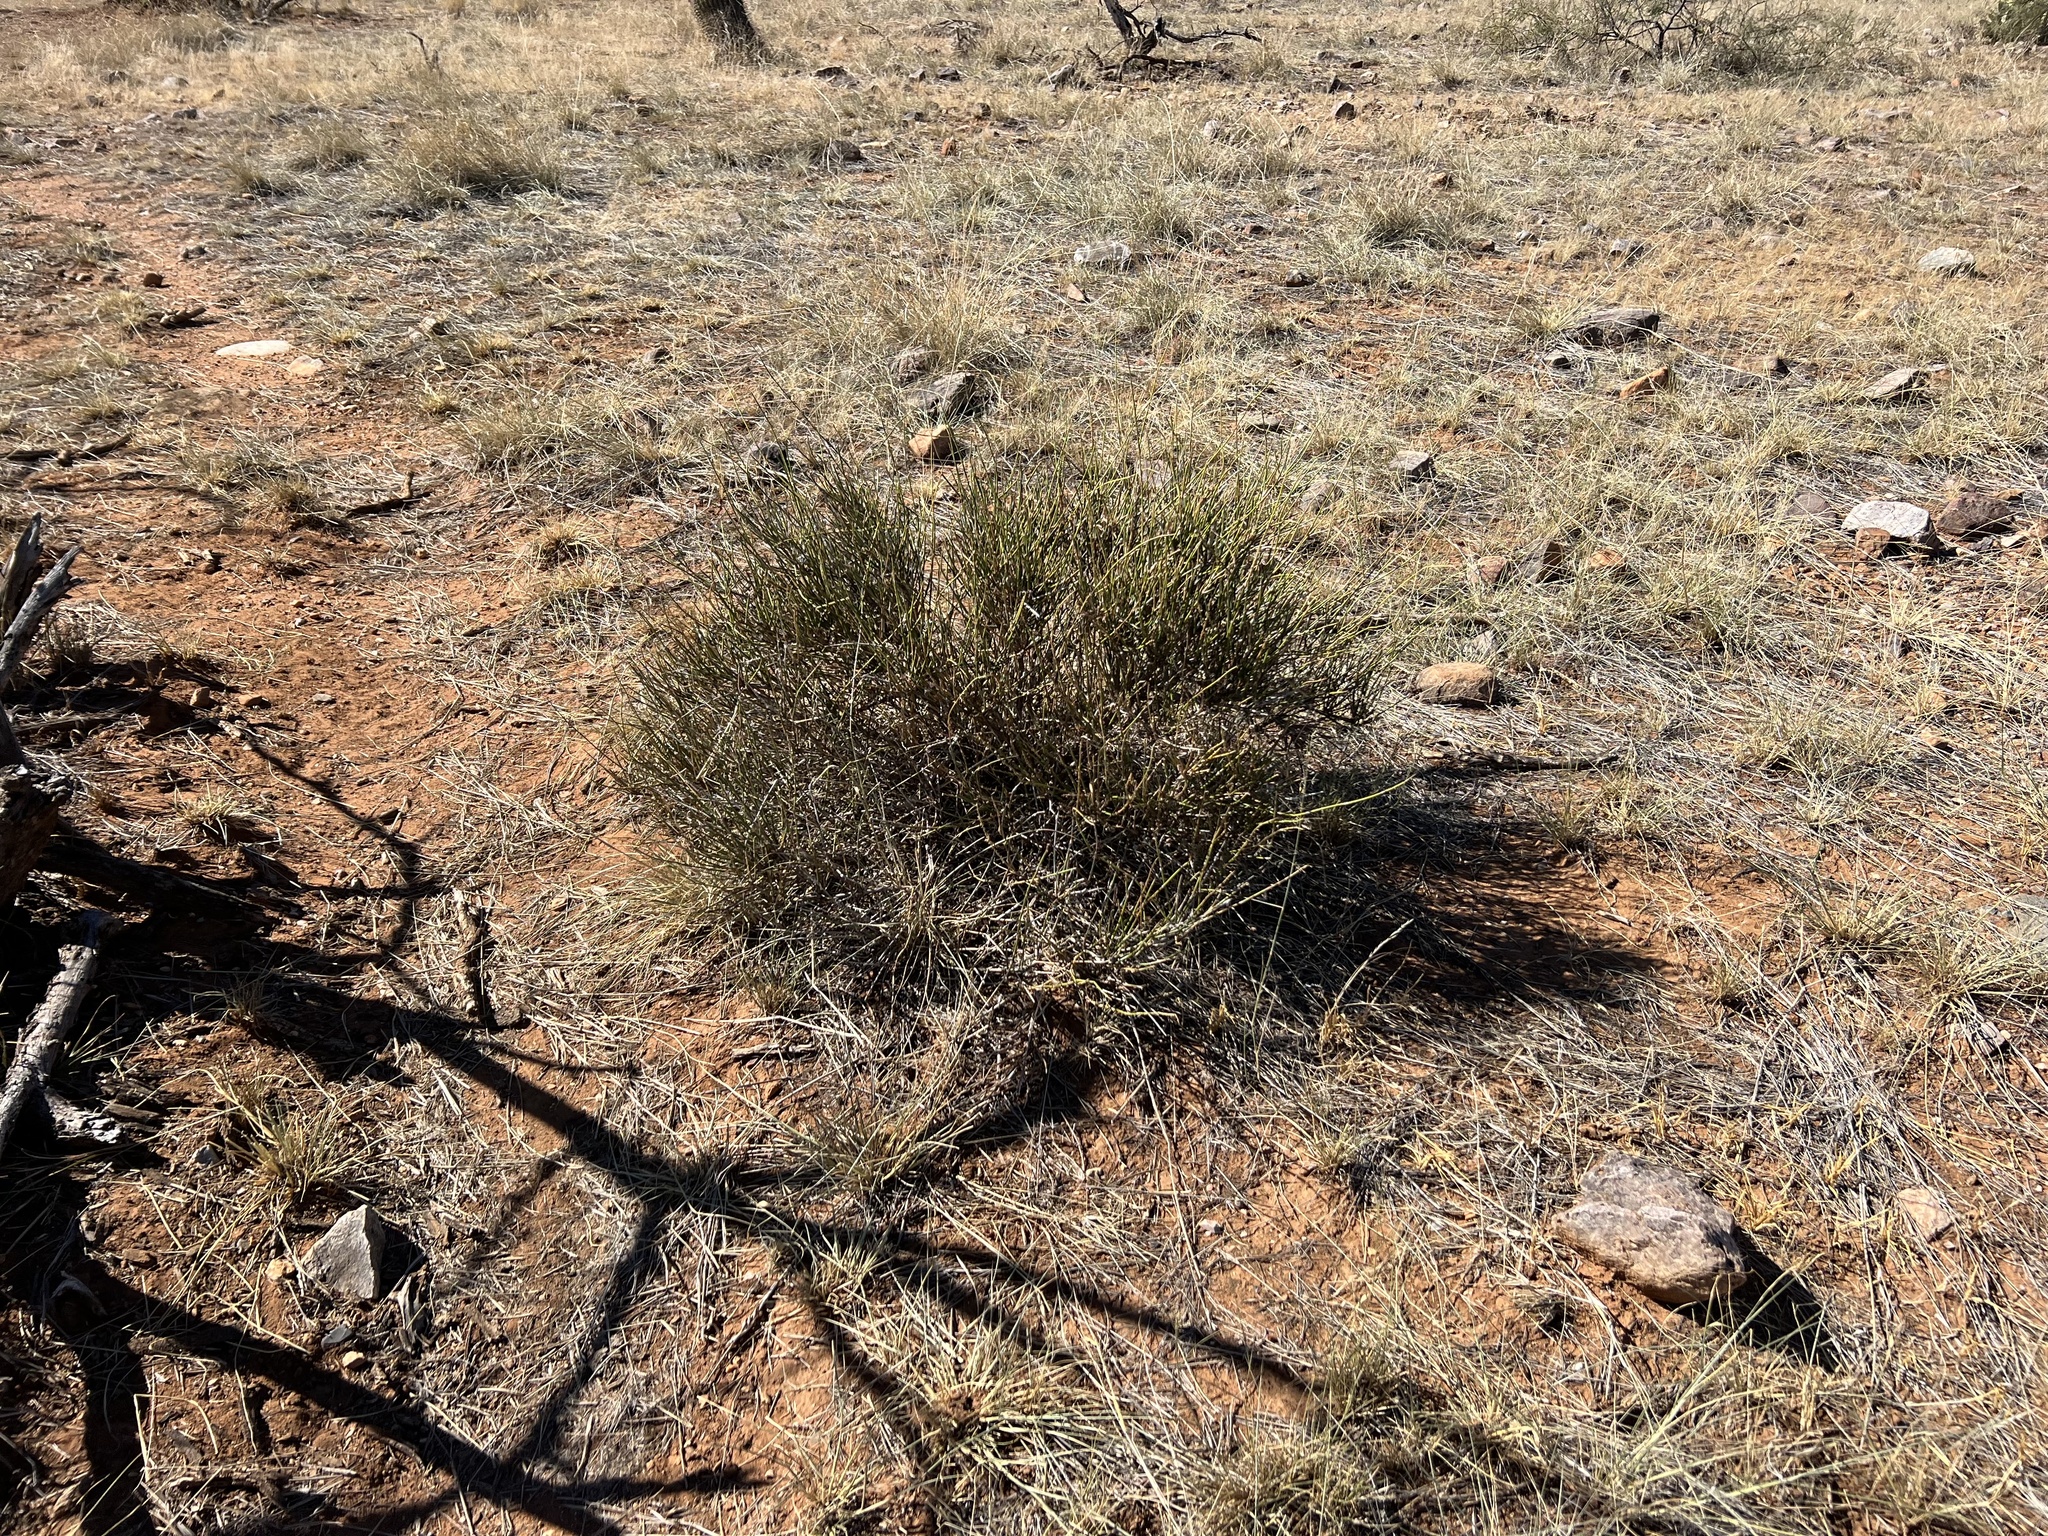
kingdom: Plantae
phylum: Tracheophyta
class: Gnetopsida
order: Ephedrales
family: Ephedraceae
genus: Ephedra
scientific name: Ephedra trifurca
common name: Mexican-tea
